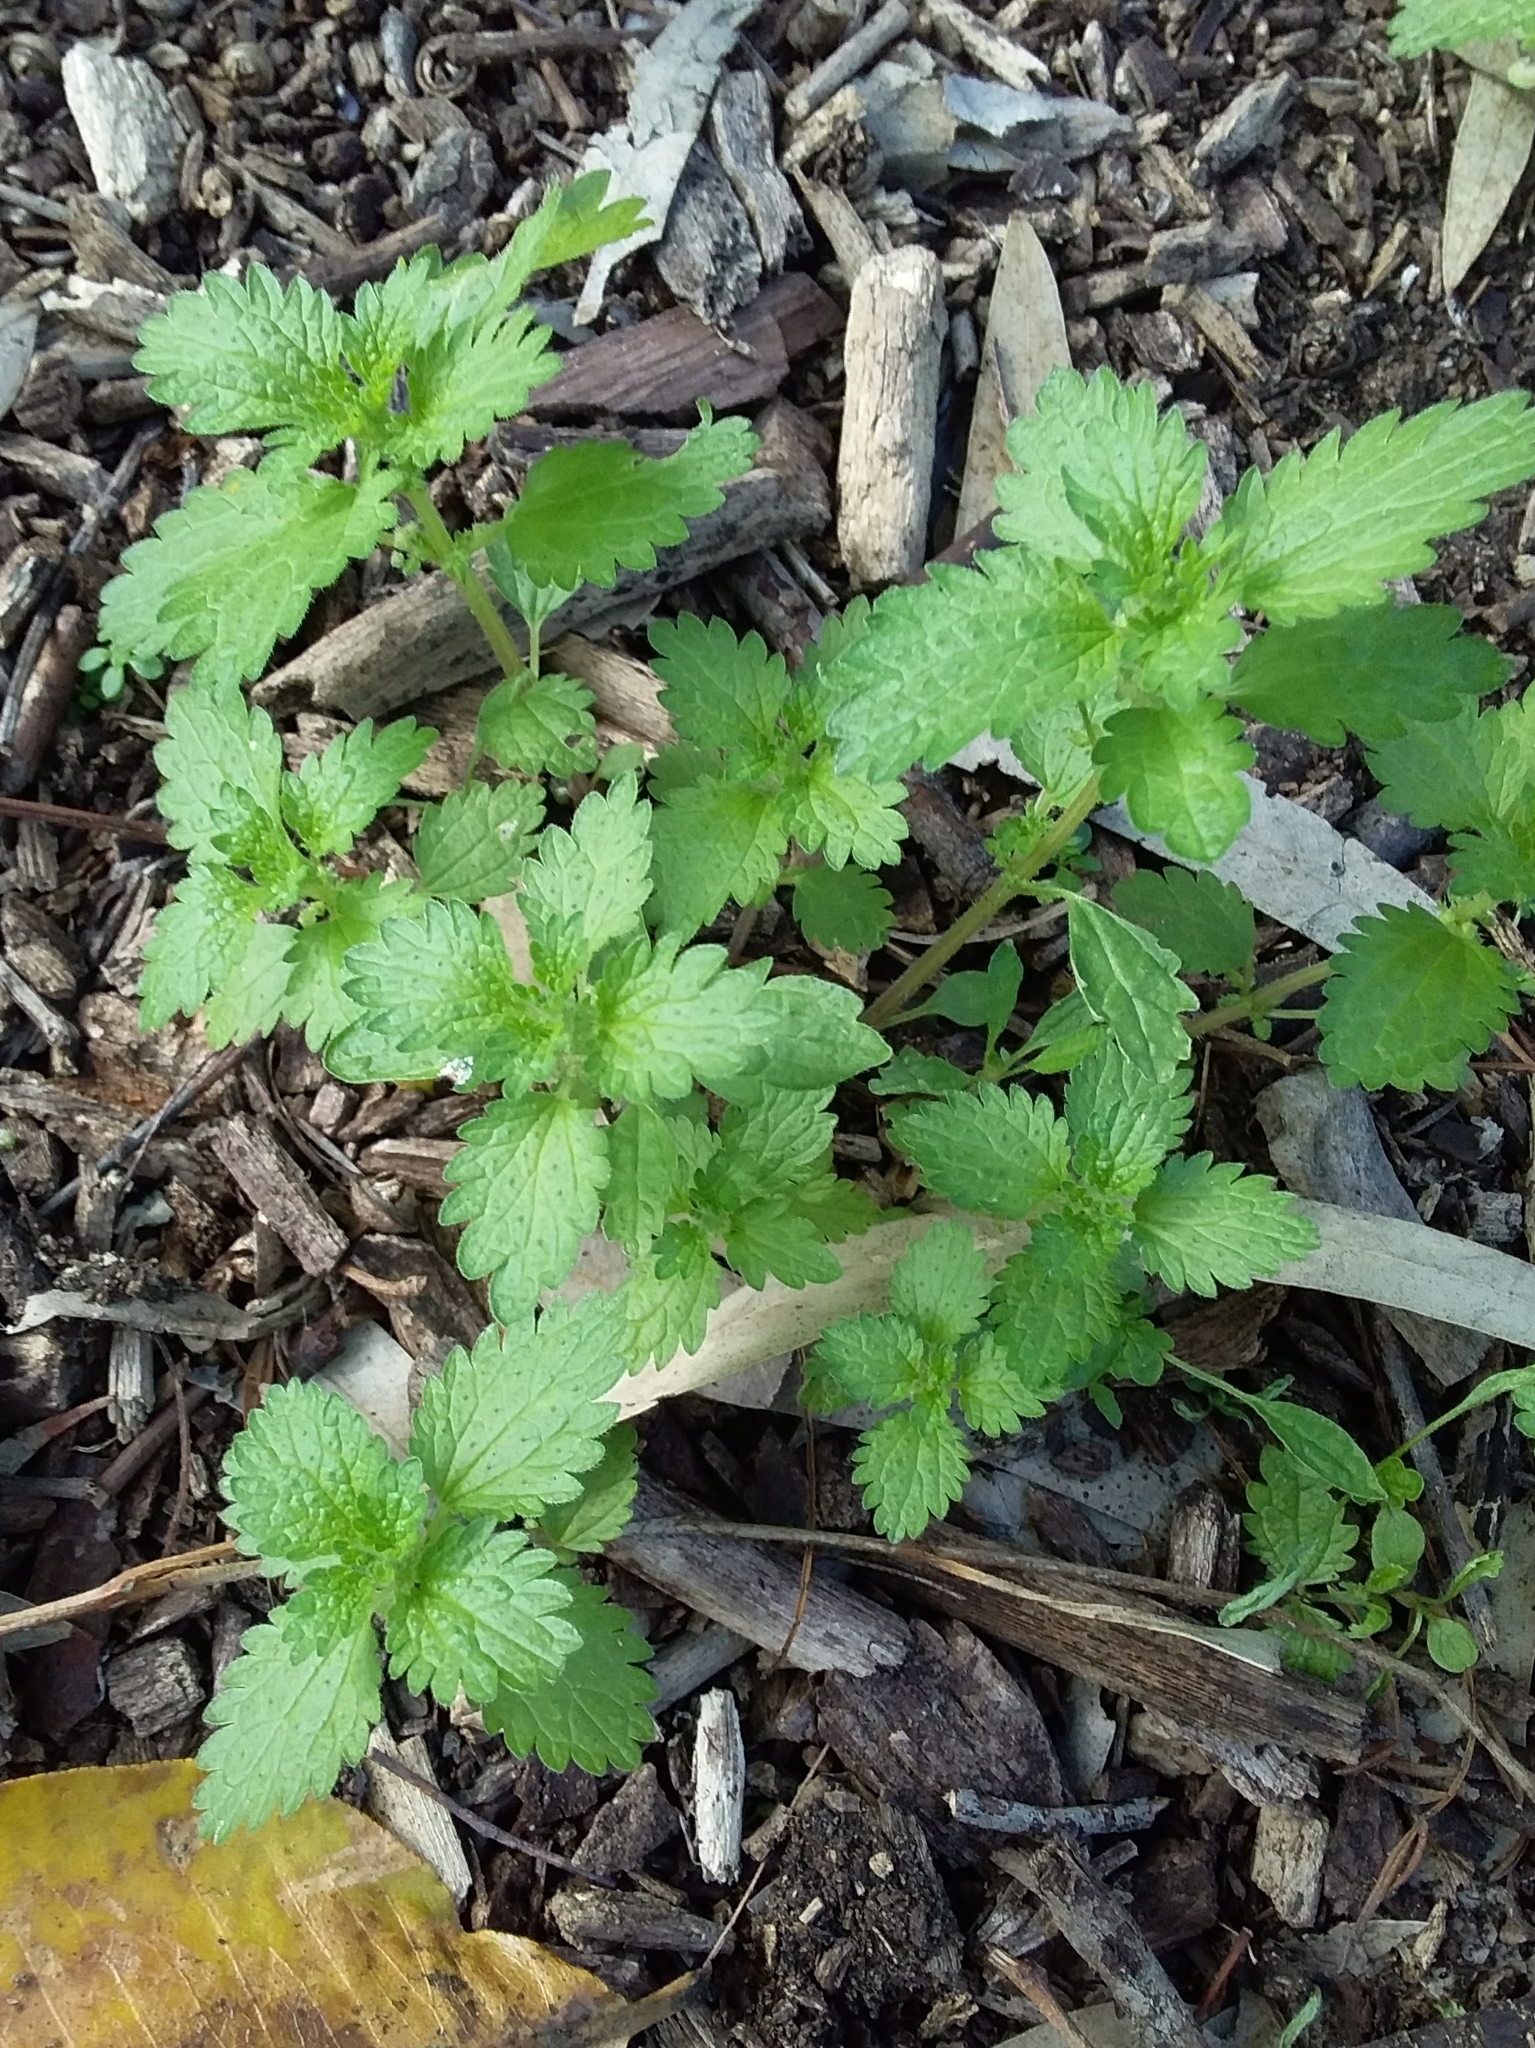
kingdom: Plantae
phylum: Tracheophyta
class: Magnoliopsida
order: Rosales
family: Urticaceae
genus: Urtica
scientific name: Urtica urens
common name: Dwarf nettle
